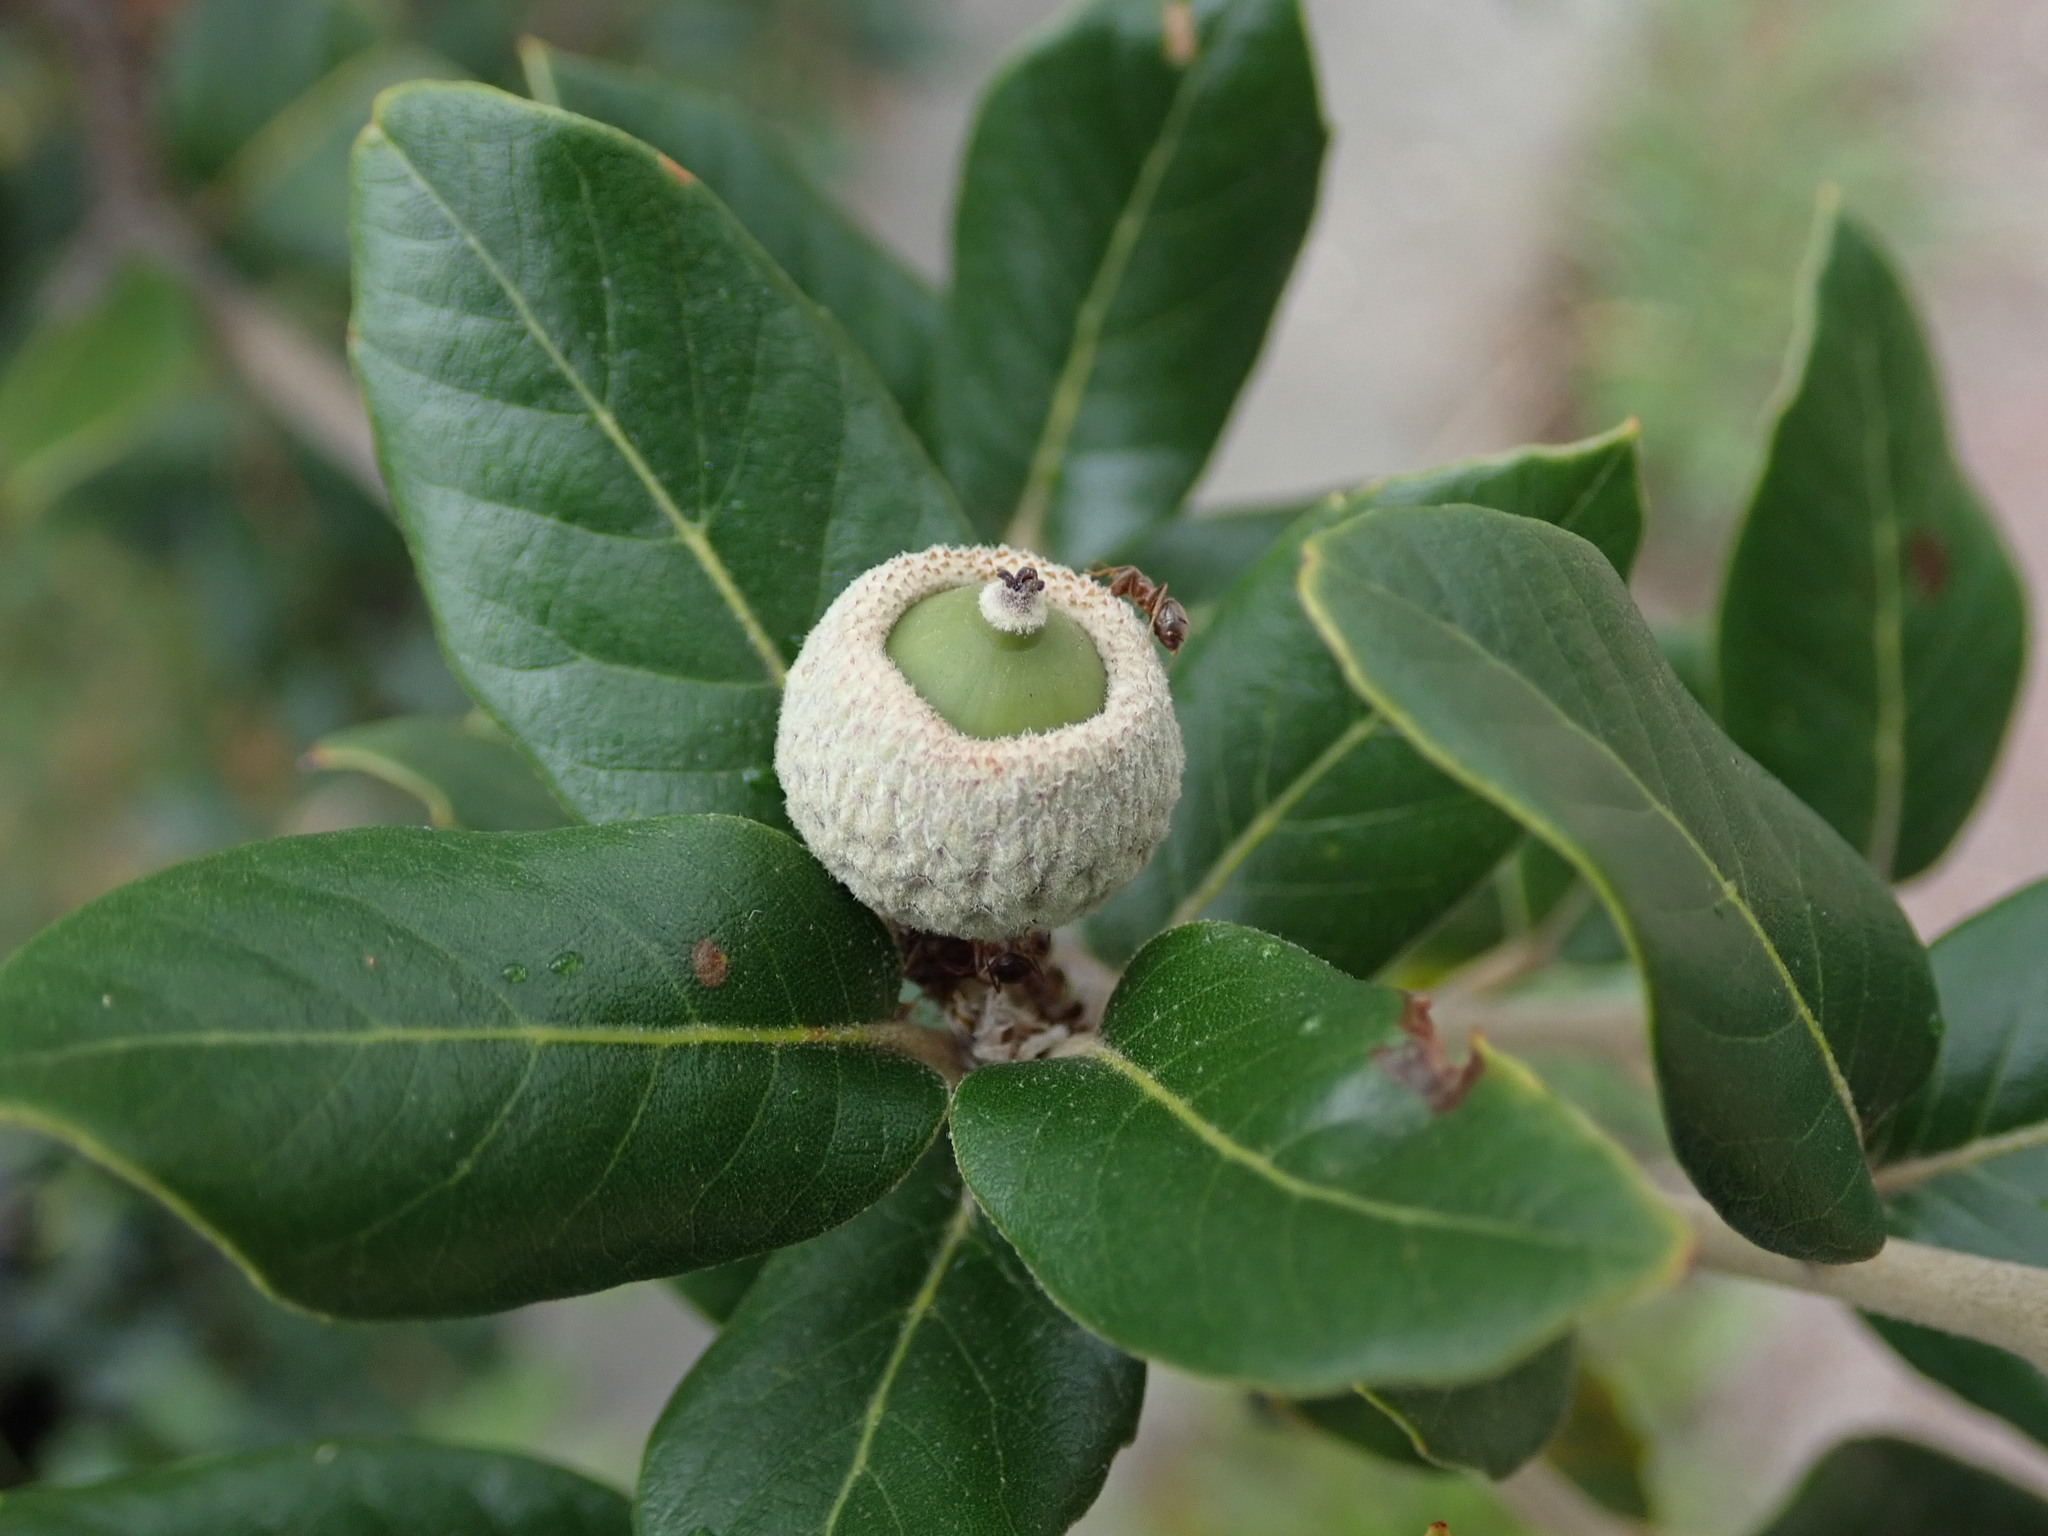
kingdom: Plantae
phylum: Tracheophyta
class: Magnoliopsida
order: Fagales
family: Fagaceae
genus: Quercus
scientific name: Quercus ilex
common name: Evergreen oak
